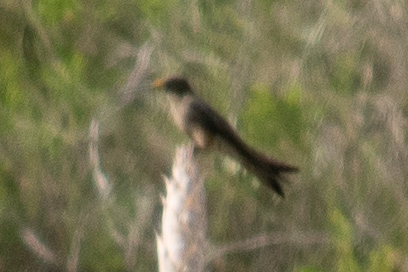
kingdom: Animalia
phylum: Chordata
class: Aves
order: Apodiformes
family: Trochilidae
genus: Patagona
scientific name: Patagona gigas
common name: Giant hummingbird
